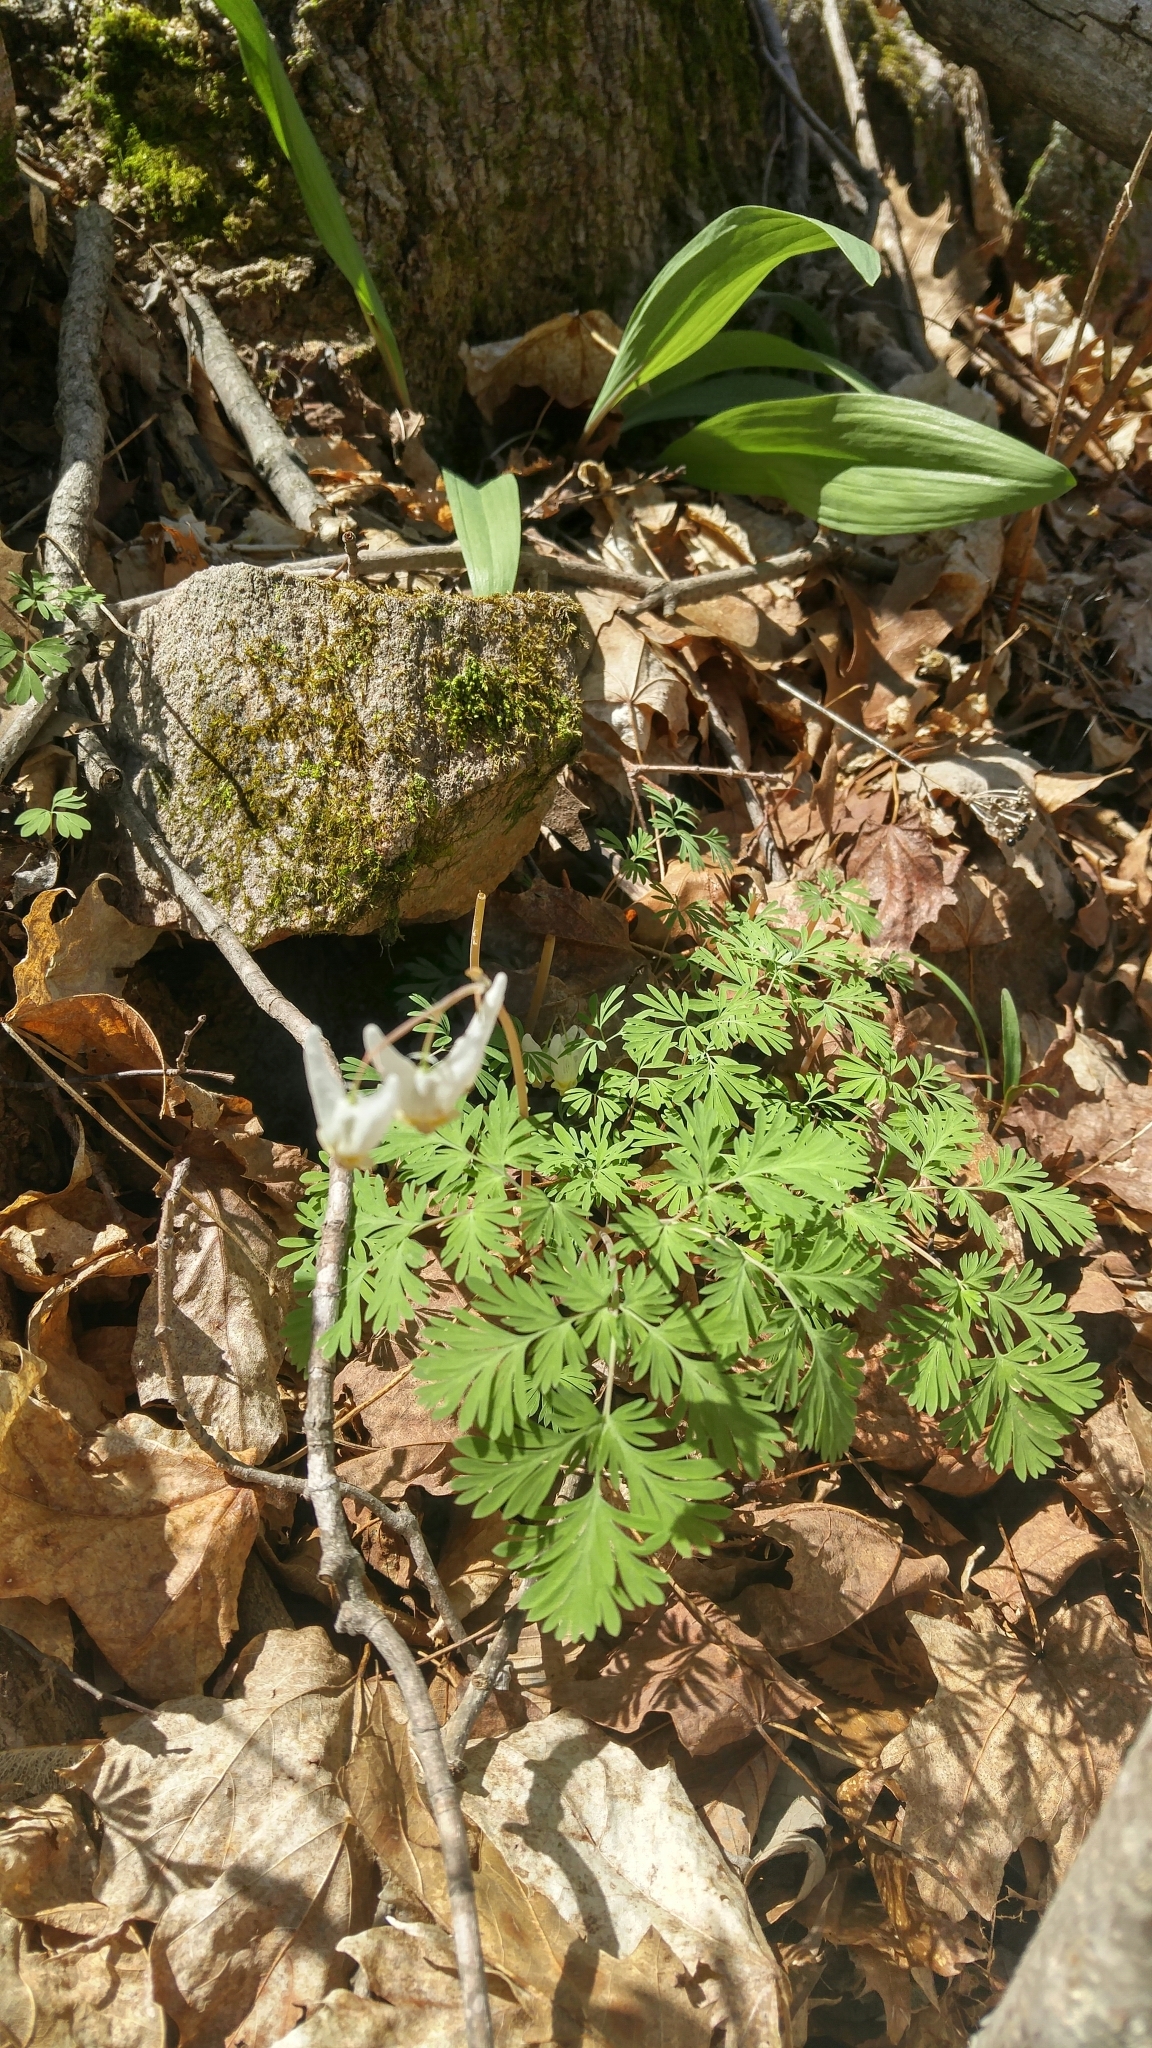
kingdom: Plantae
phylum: Tracheophyta
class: Magnoliopsida
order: Ranunculales
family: Papaveraceae
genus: Dicentra
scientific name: Dicentra cucullaria
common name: Dutchman's breeches
